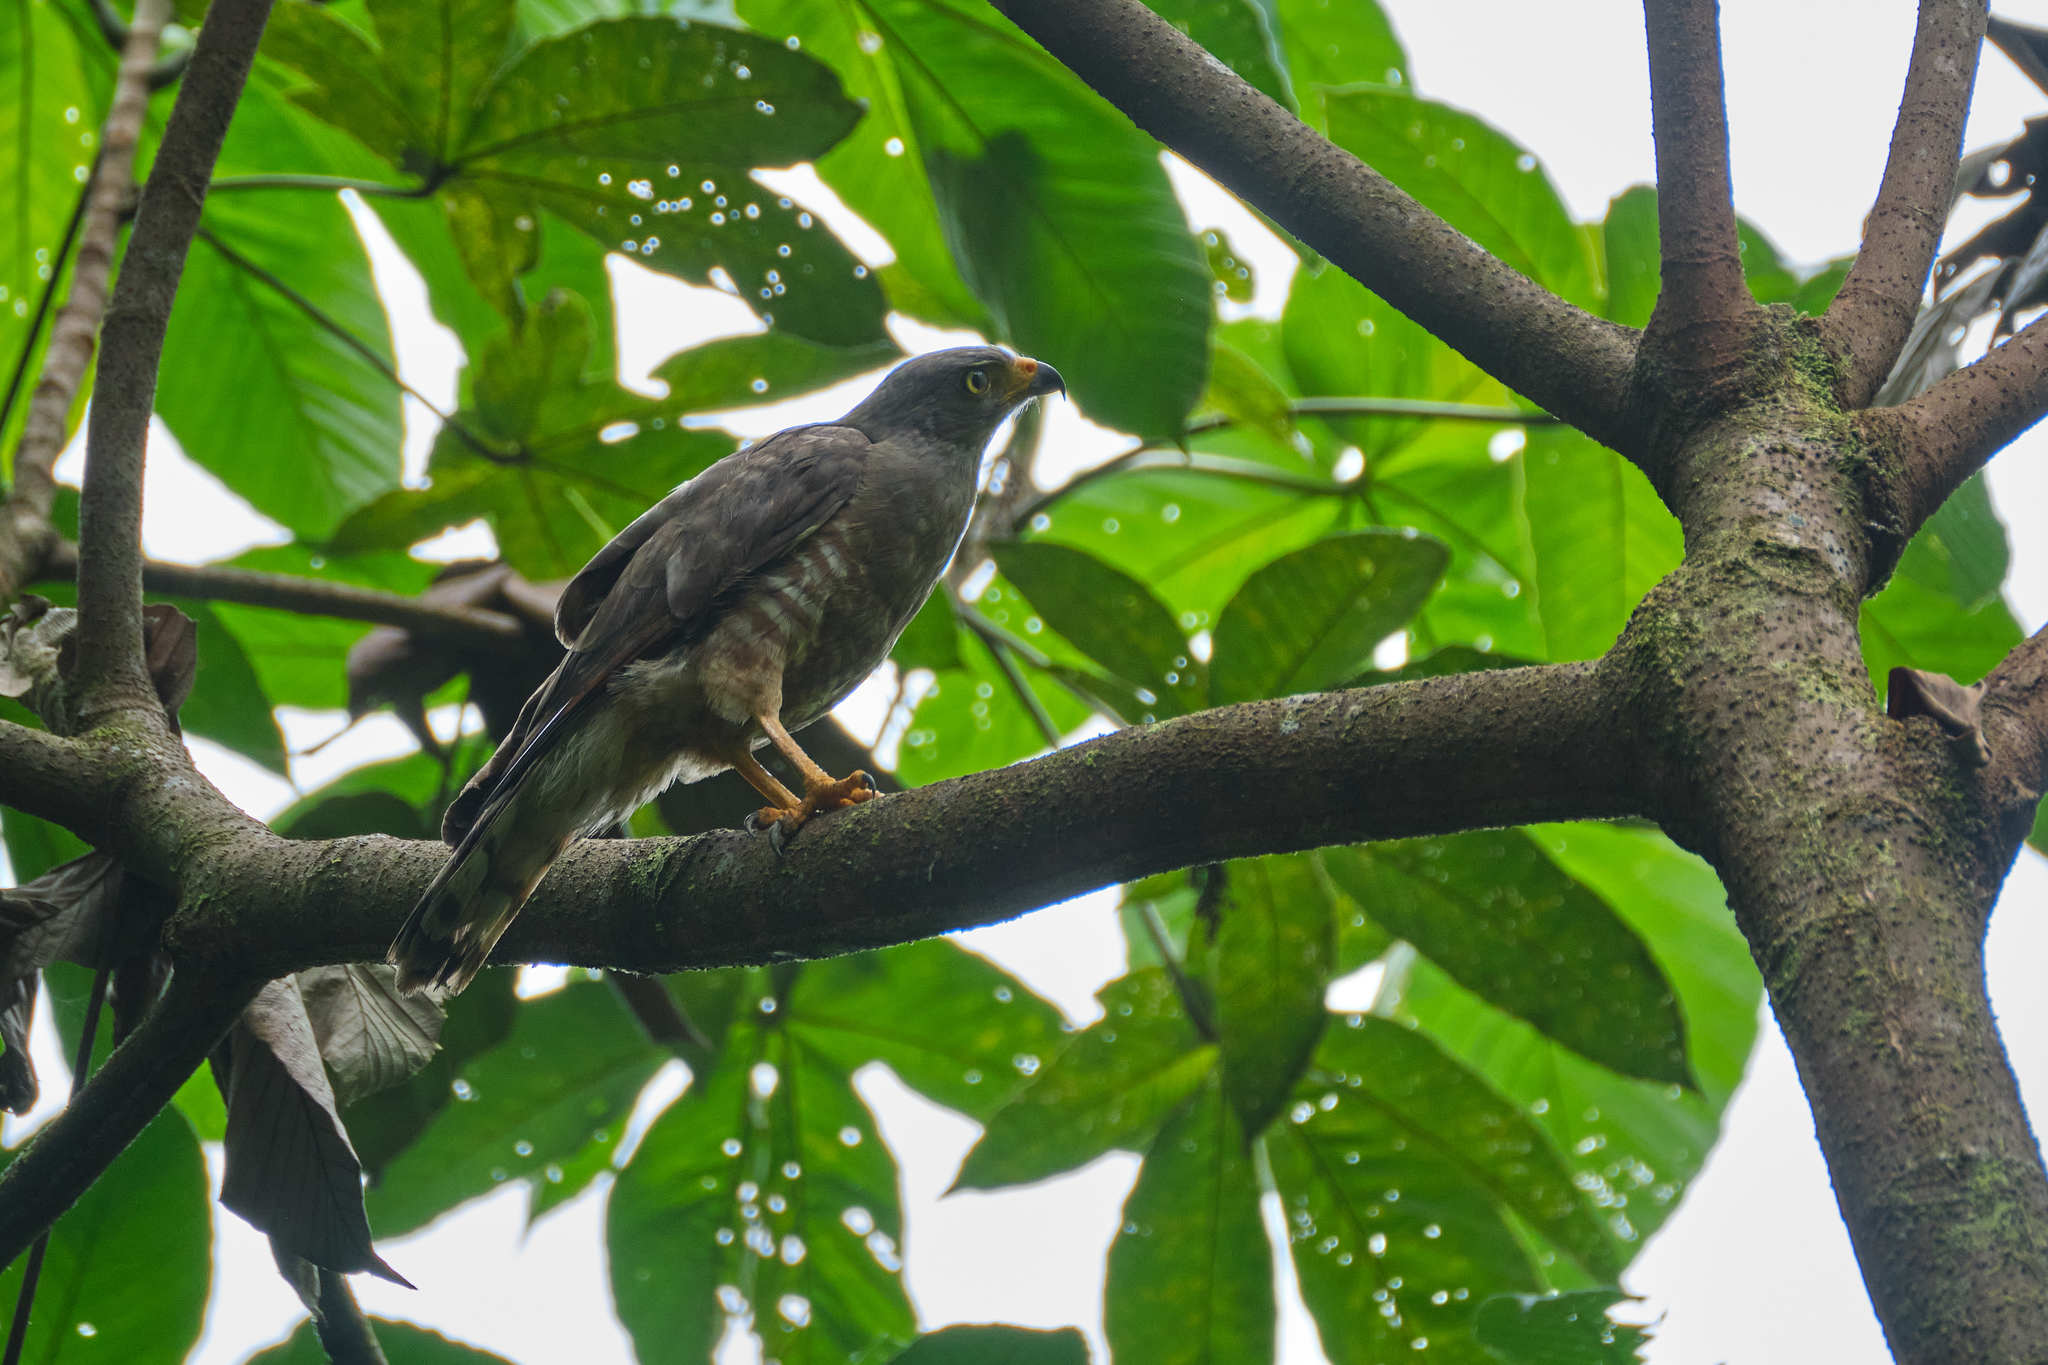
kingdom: Animalia
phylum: Chordata
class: Aves
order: Accipitriformes
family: Accipitridae
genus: Rupornis
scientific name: Rupornis magnirostris
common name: Roadside hawk
